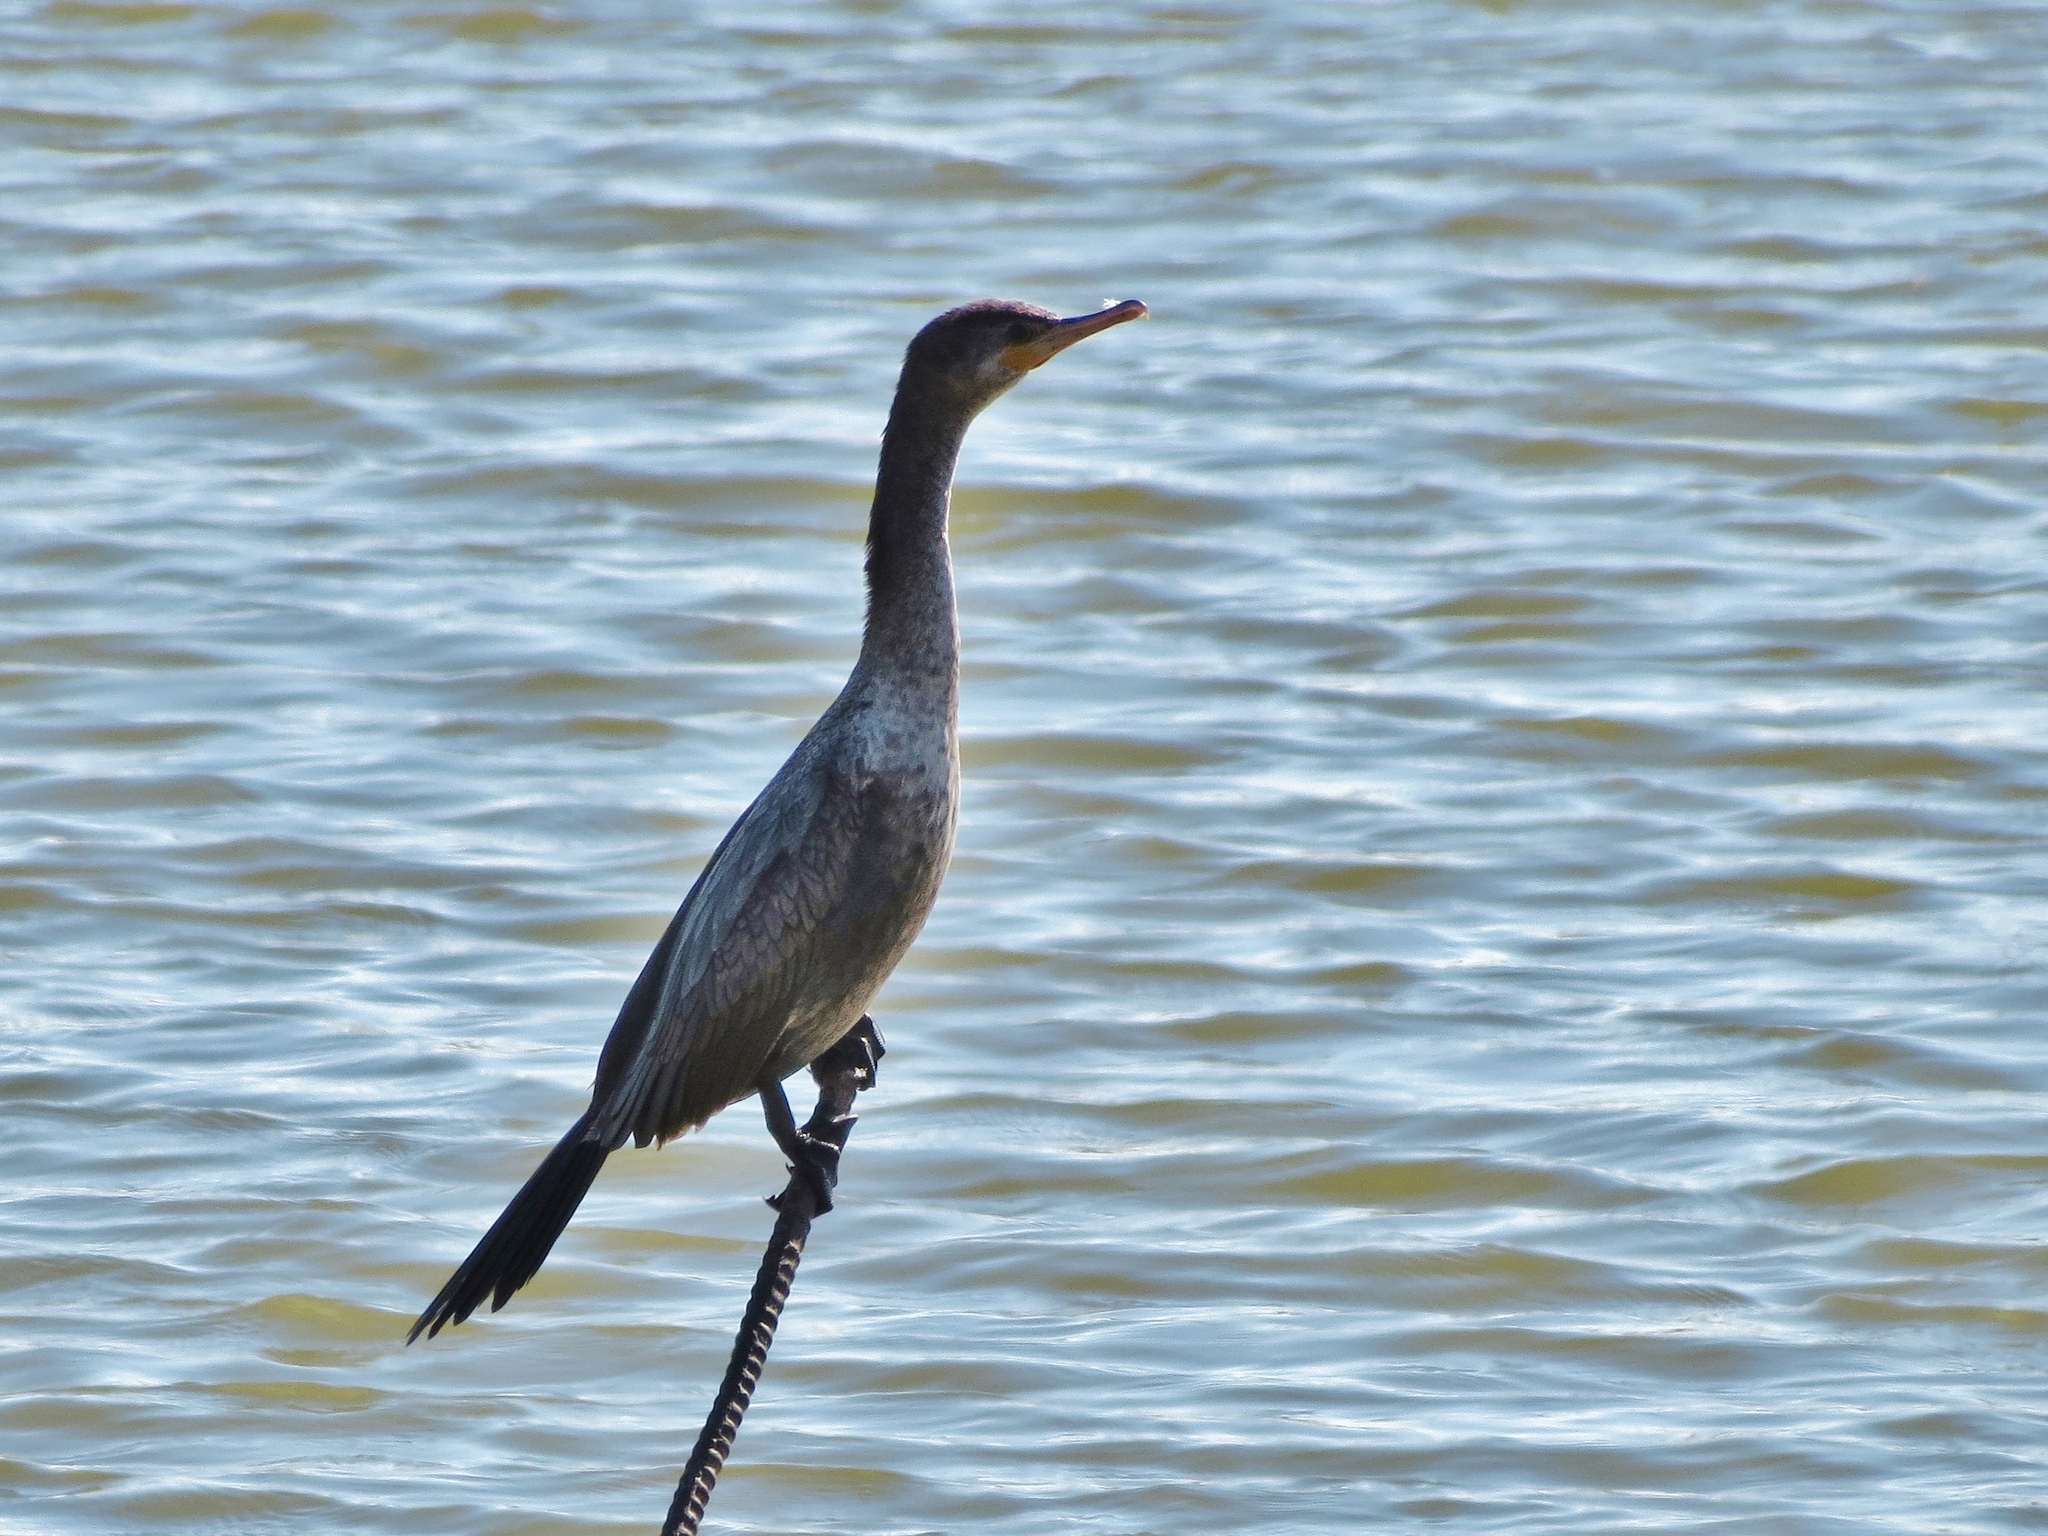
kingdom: Animalia
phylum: Chordata
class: Aves
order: Suliformes
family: Phalacrocoracidae
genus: Phalacrocorax
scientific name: Phalacrocorax brasilianus
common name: Neotropic cormorant
